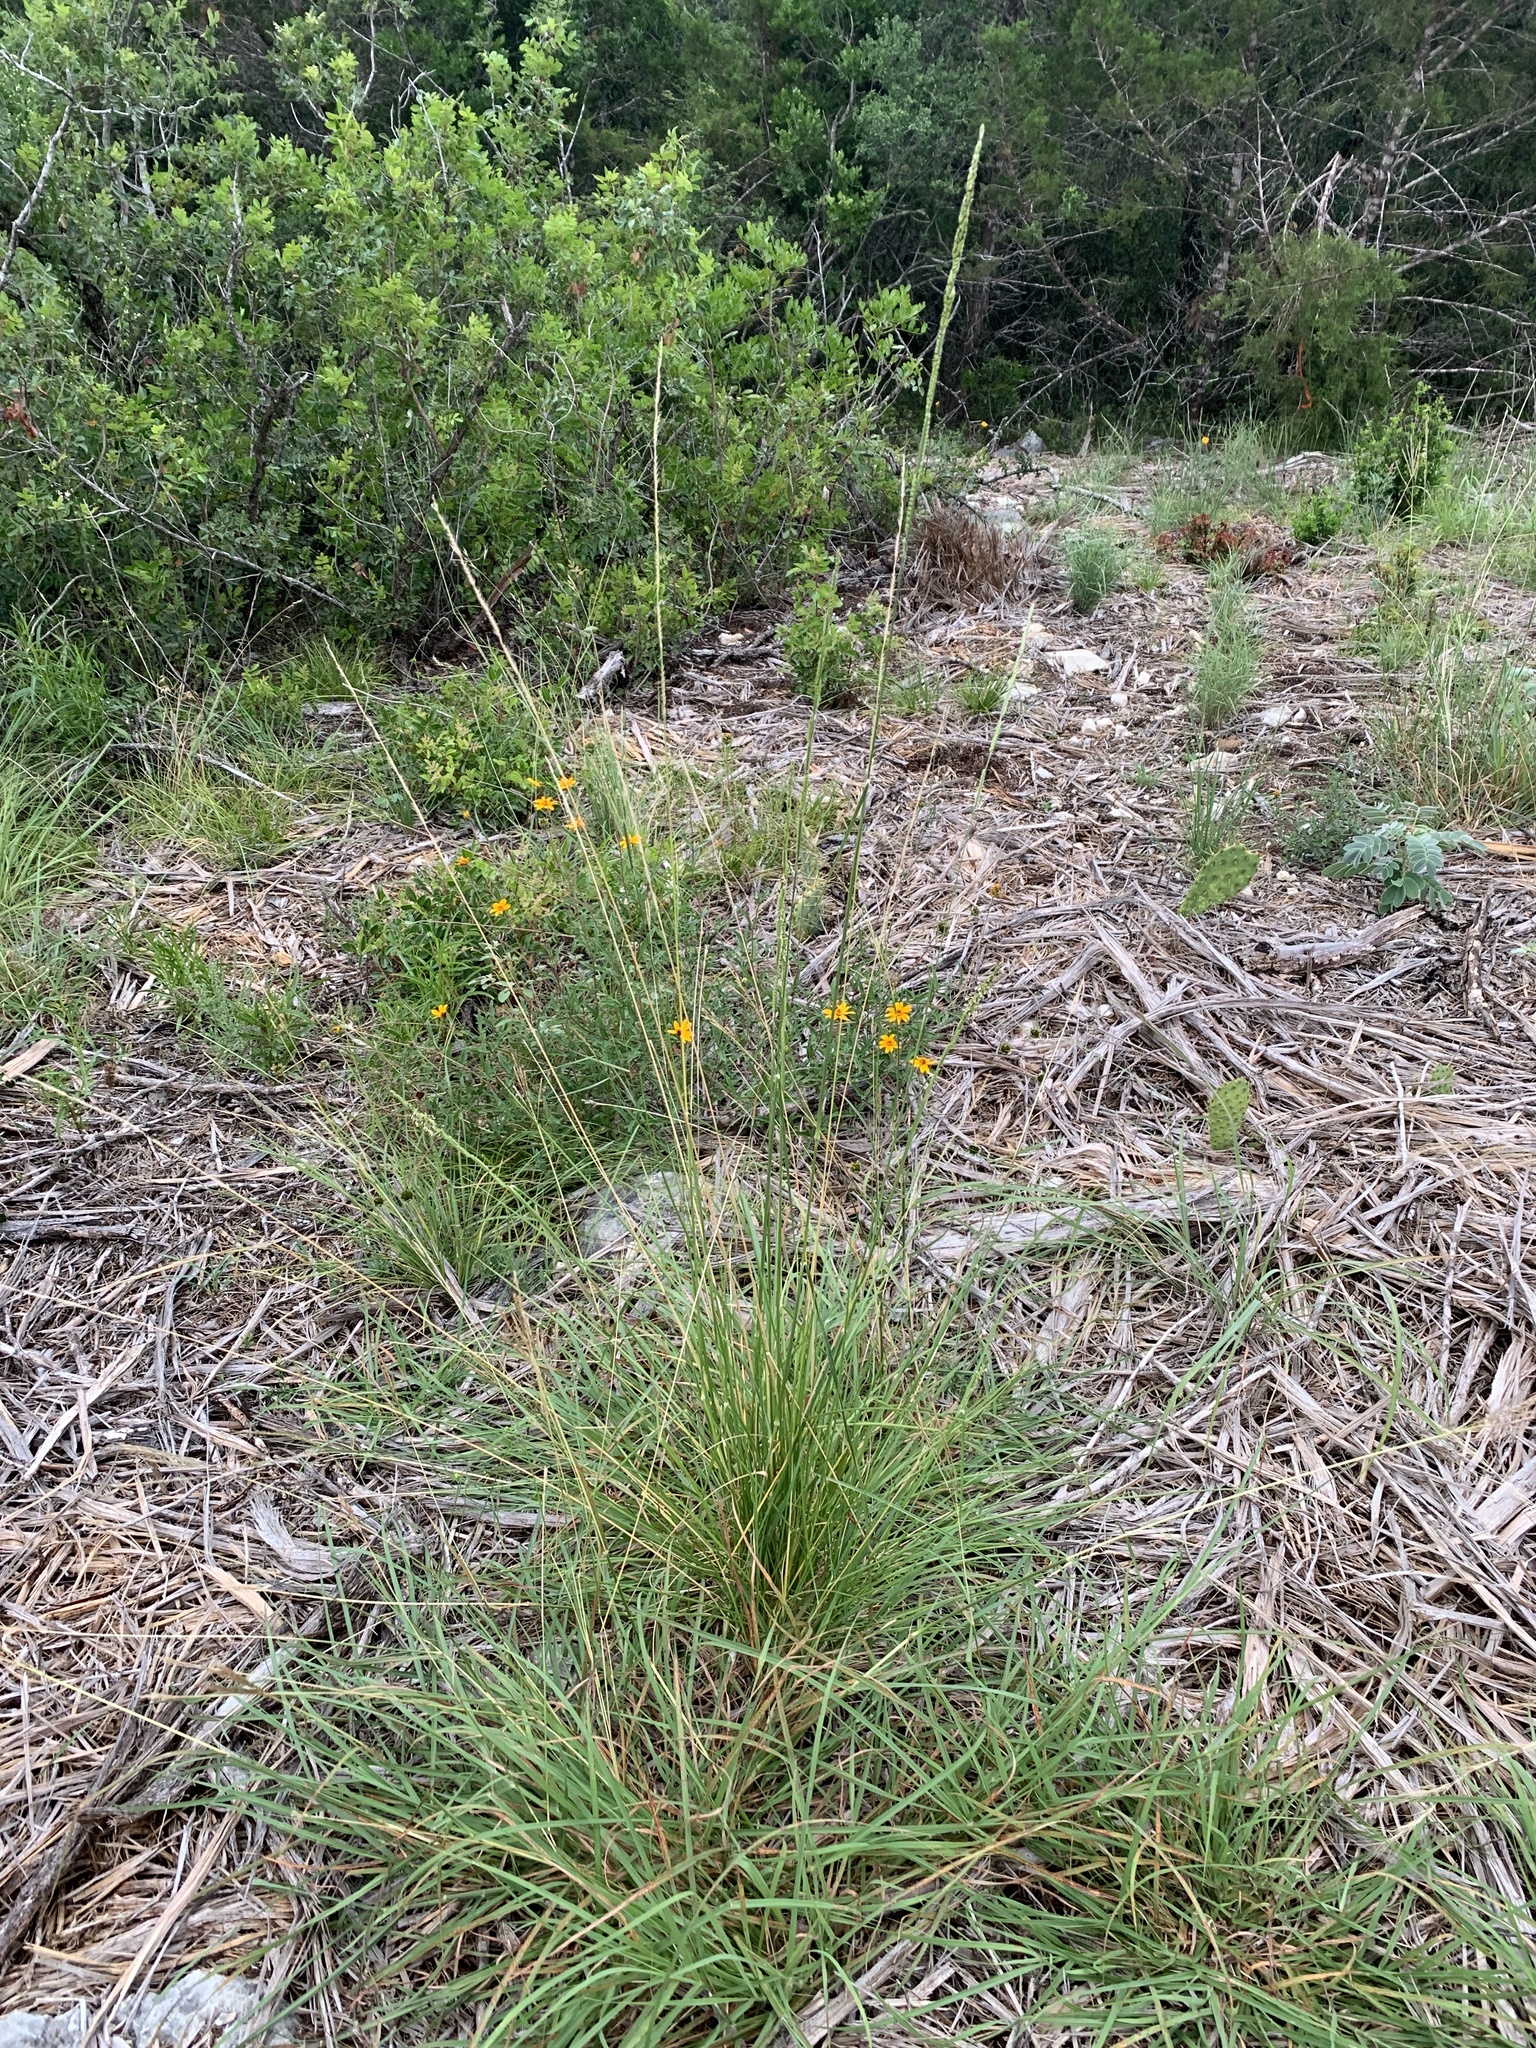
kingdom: Plantae
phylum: Tracheophyta
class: Liliopsida
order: Poales
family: Poaceae
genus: Eriochloa
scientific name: Eriochloa sericea
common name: Texas cup grass
